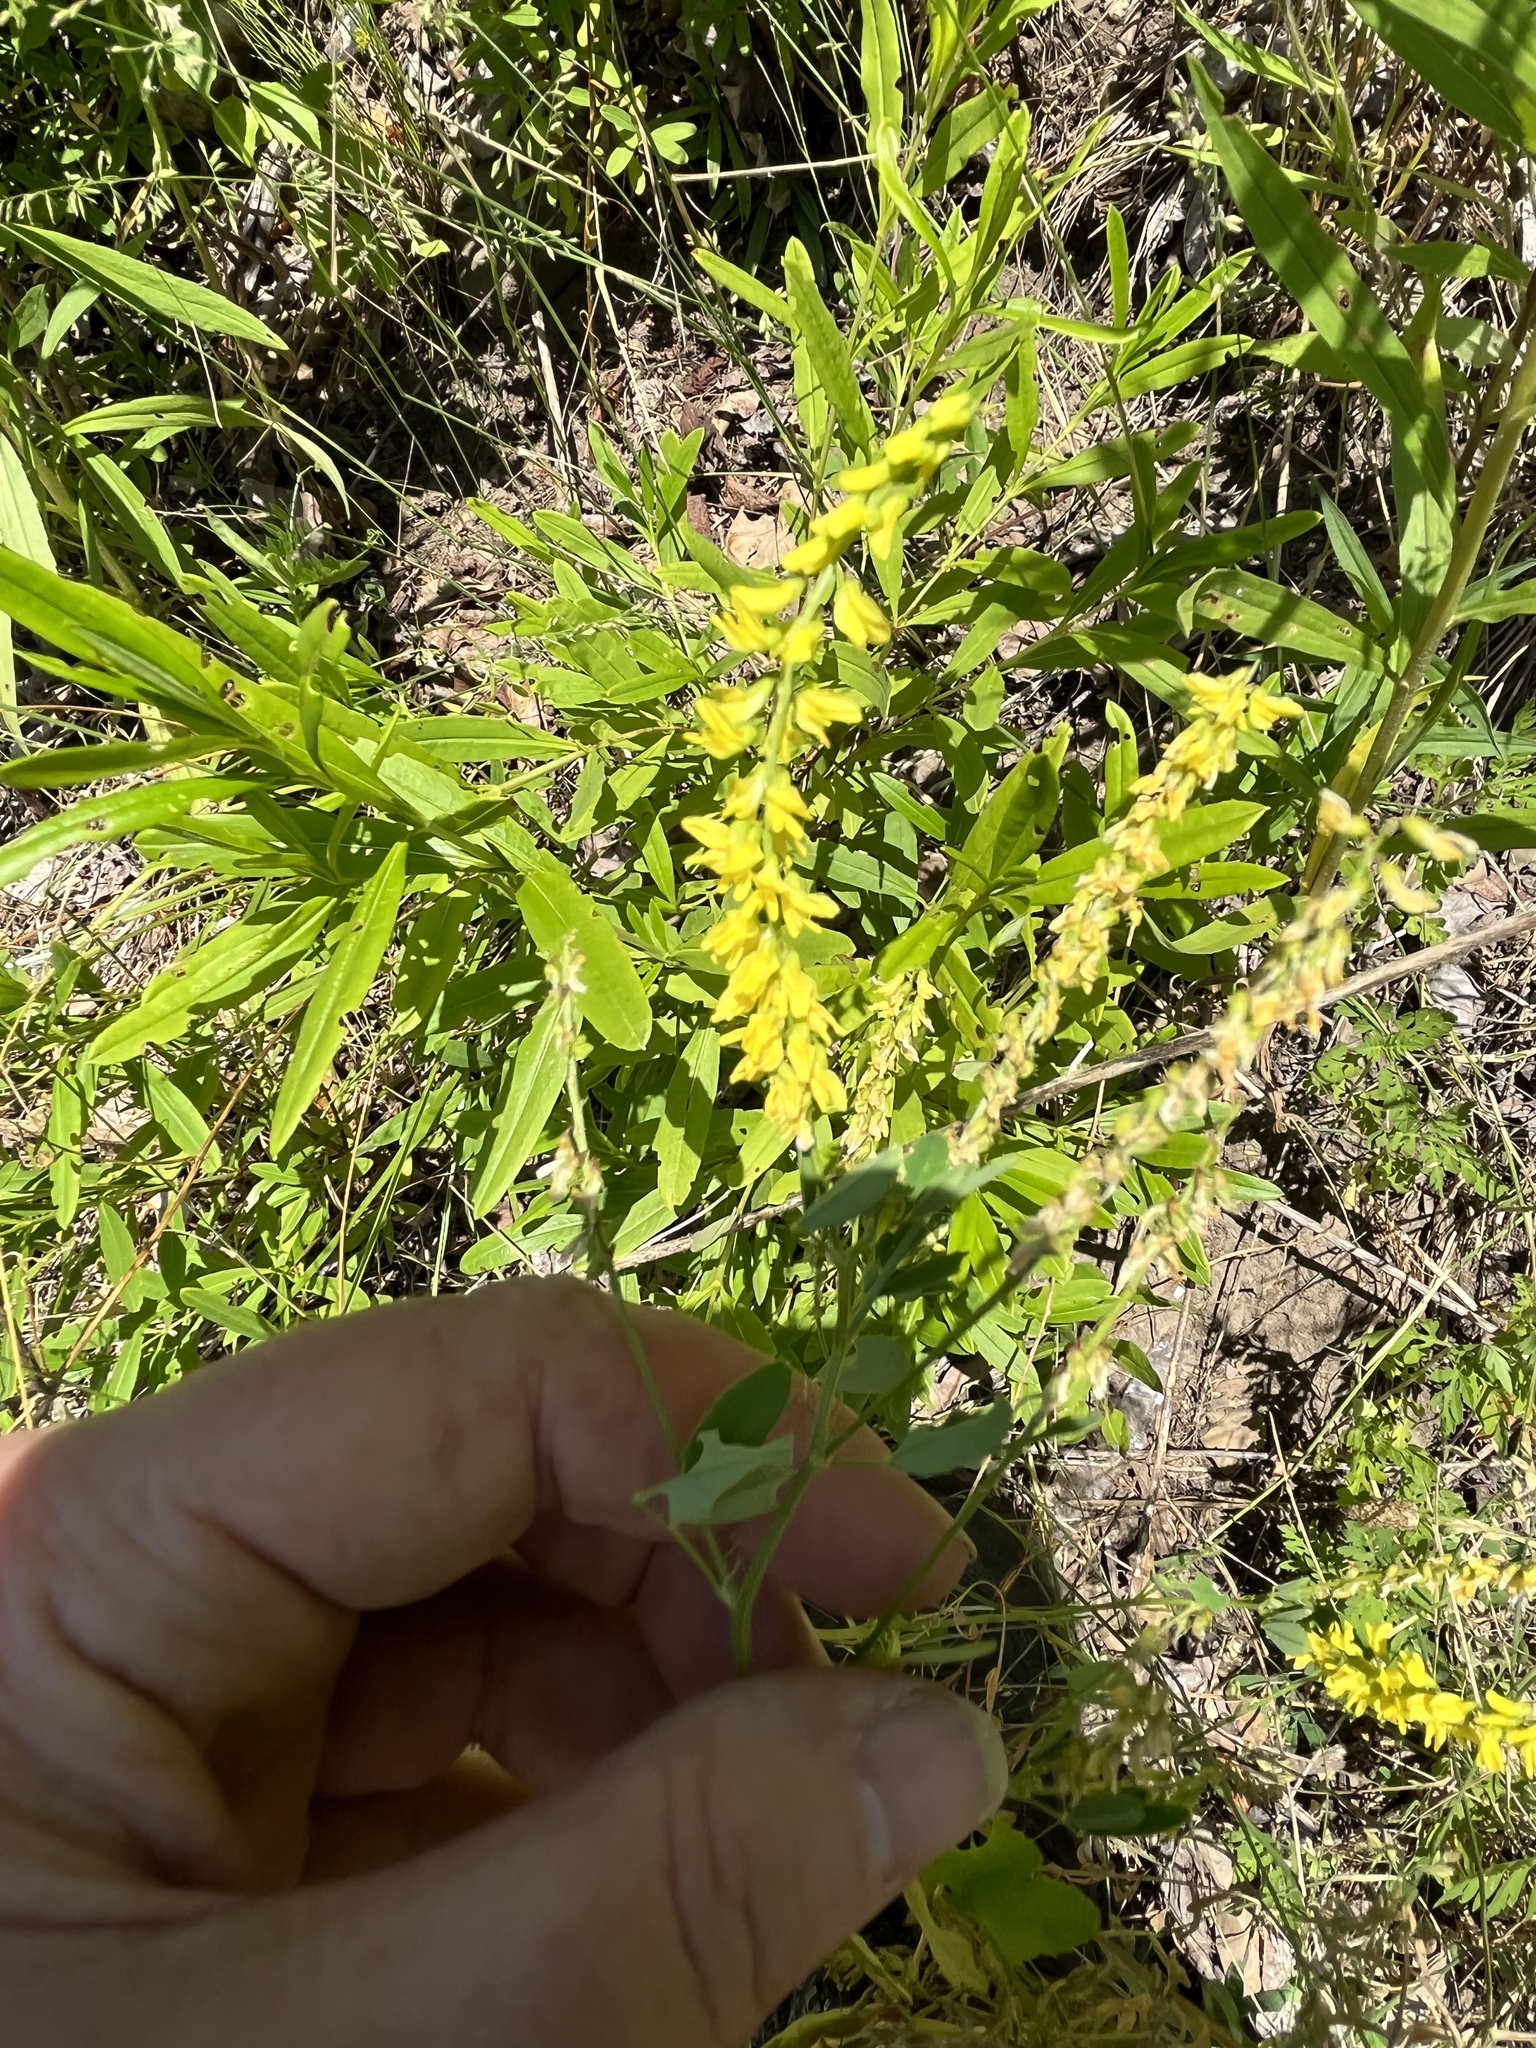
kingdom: Plantae
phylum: Tracheophyta
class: Magnoliopsida
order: Fabales
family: Fabaceae
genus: Melilotus
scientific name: Melilotus officinalis
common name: Sweetclover
